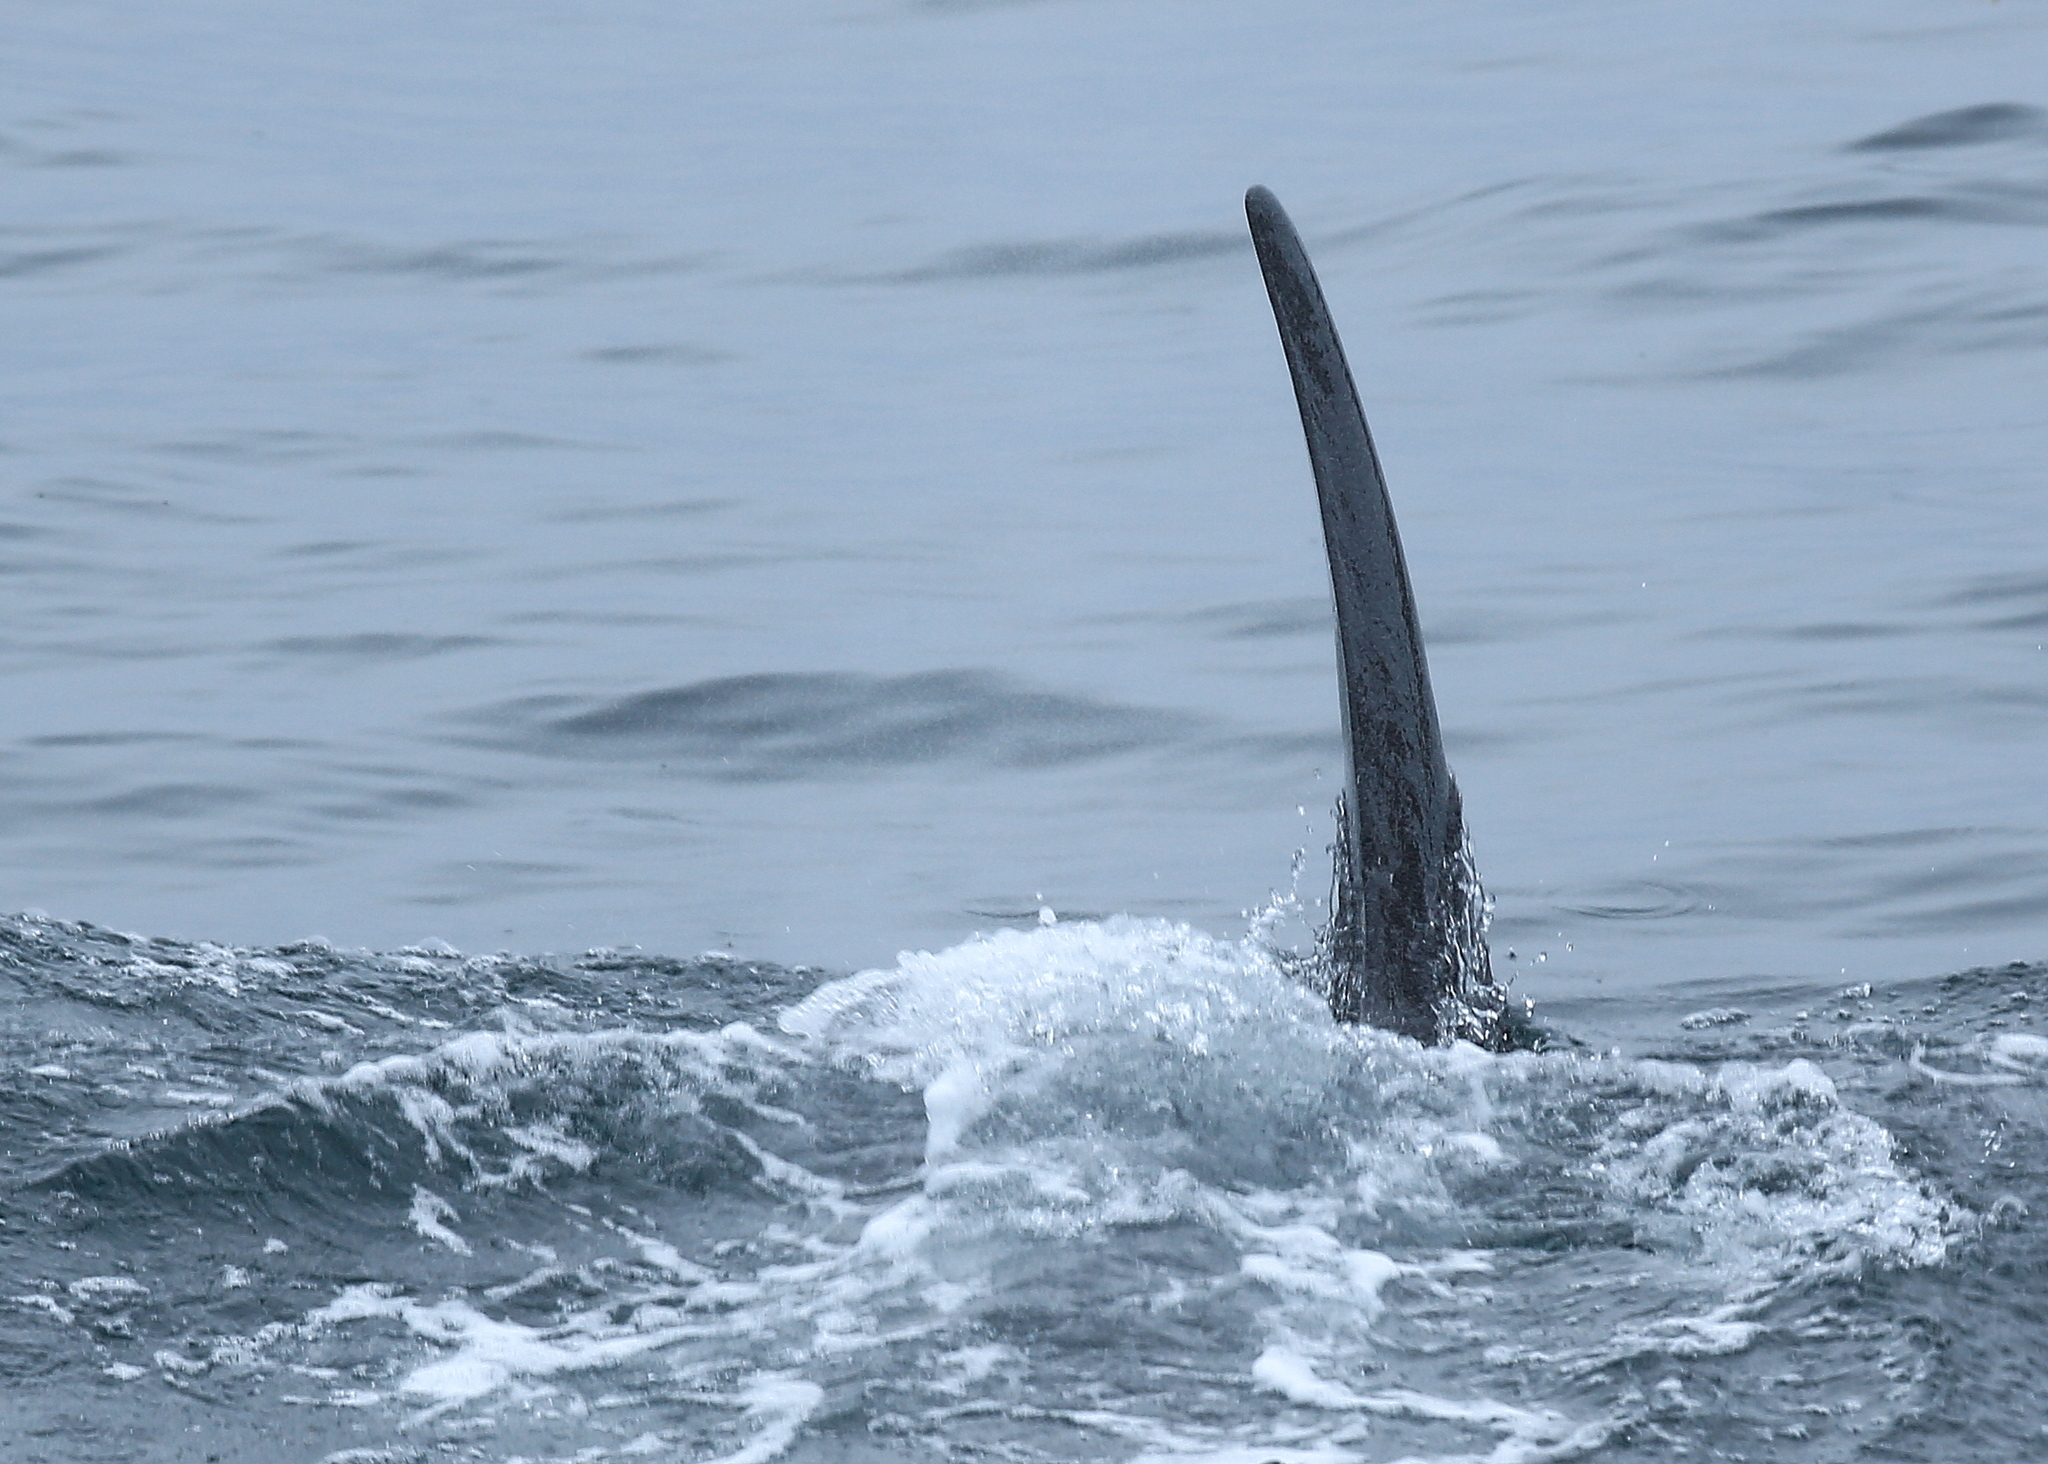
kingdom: Animalia
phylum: Chordata
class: Mammalia
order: Cetacea
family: Delphinidae
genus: Orcinus
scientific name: Orcinus orca
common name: Killer whale
